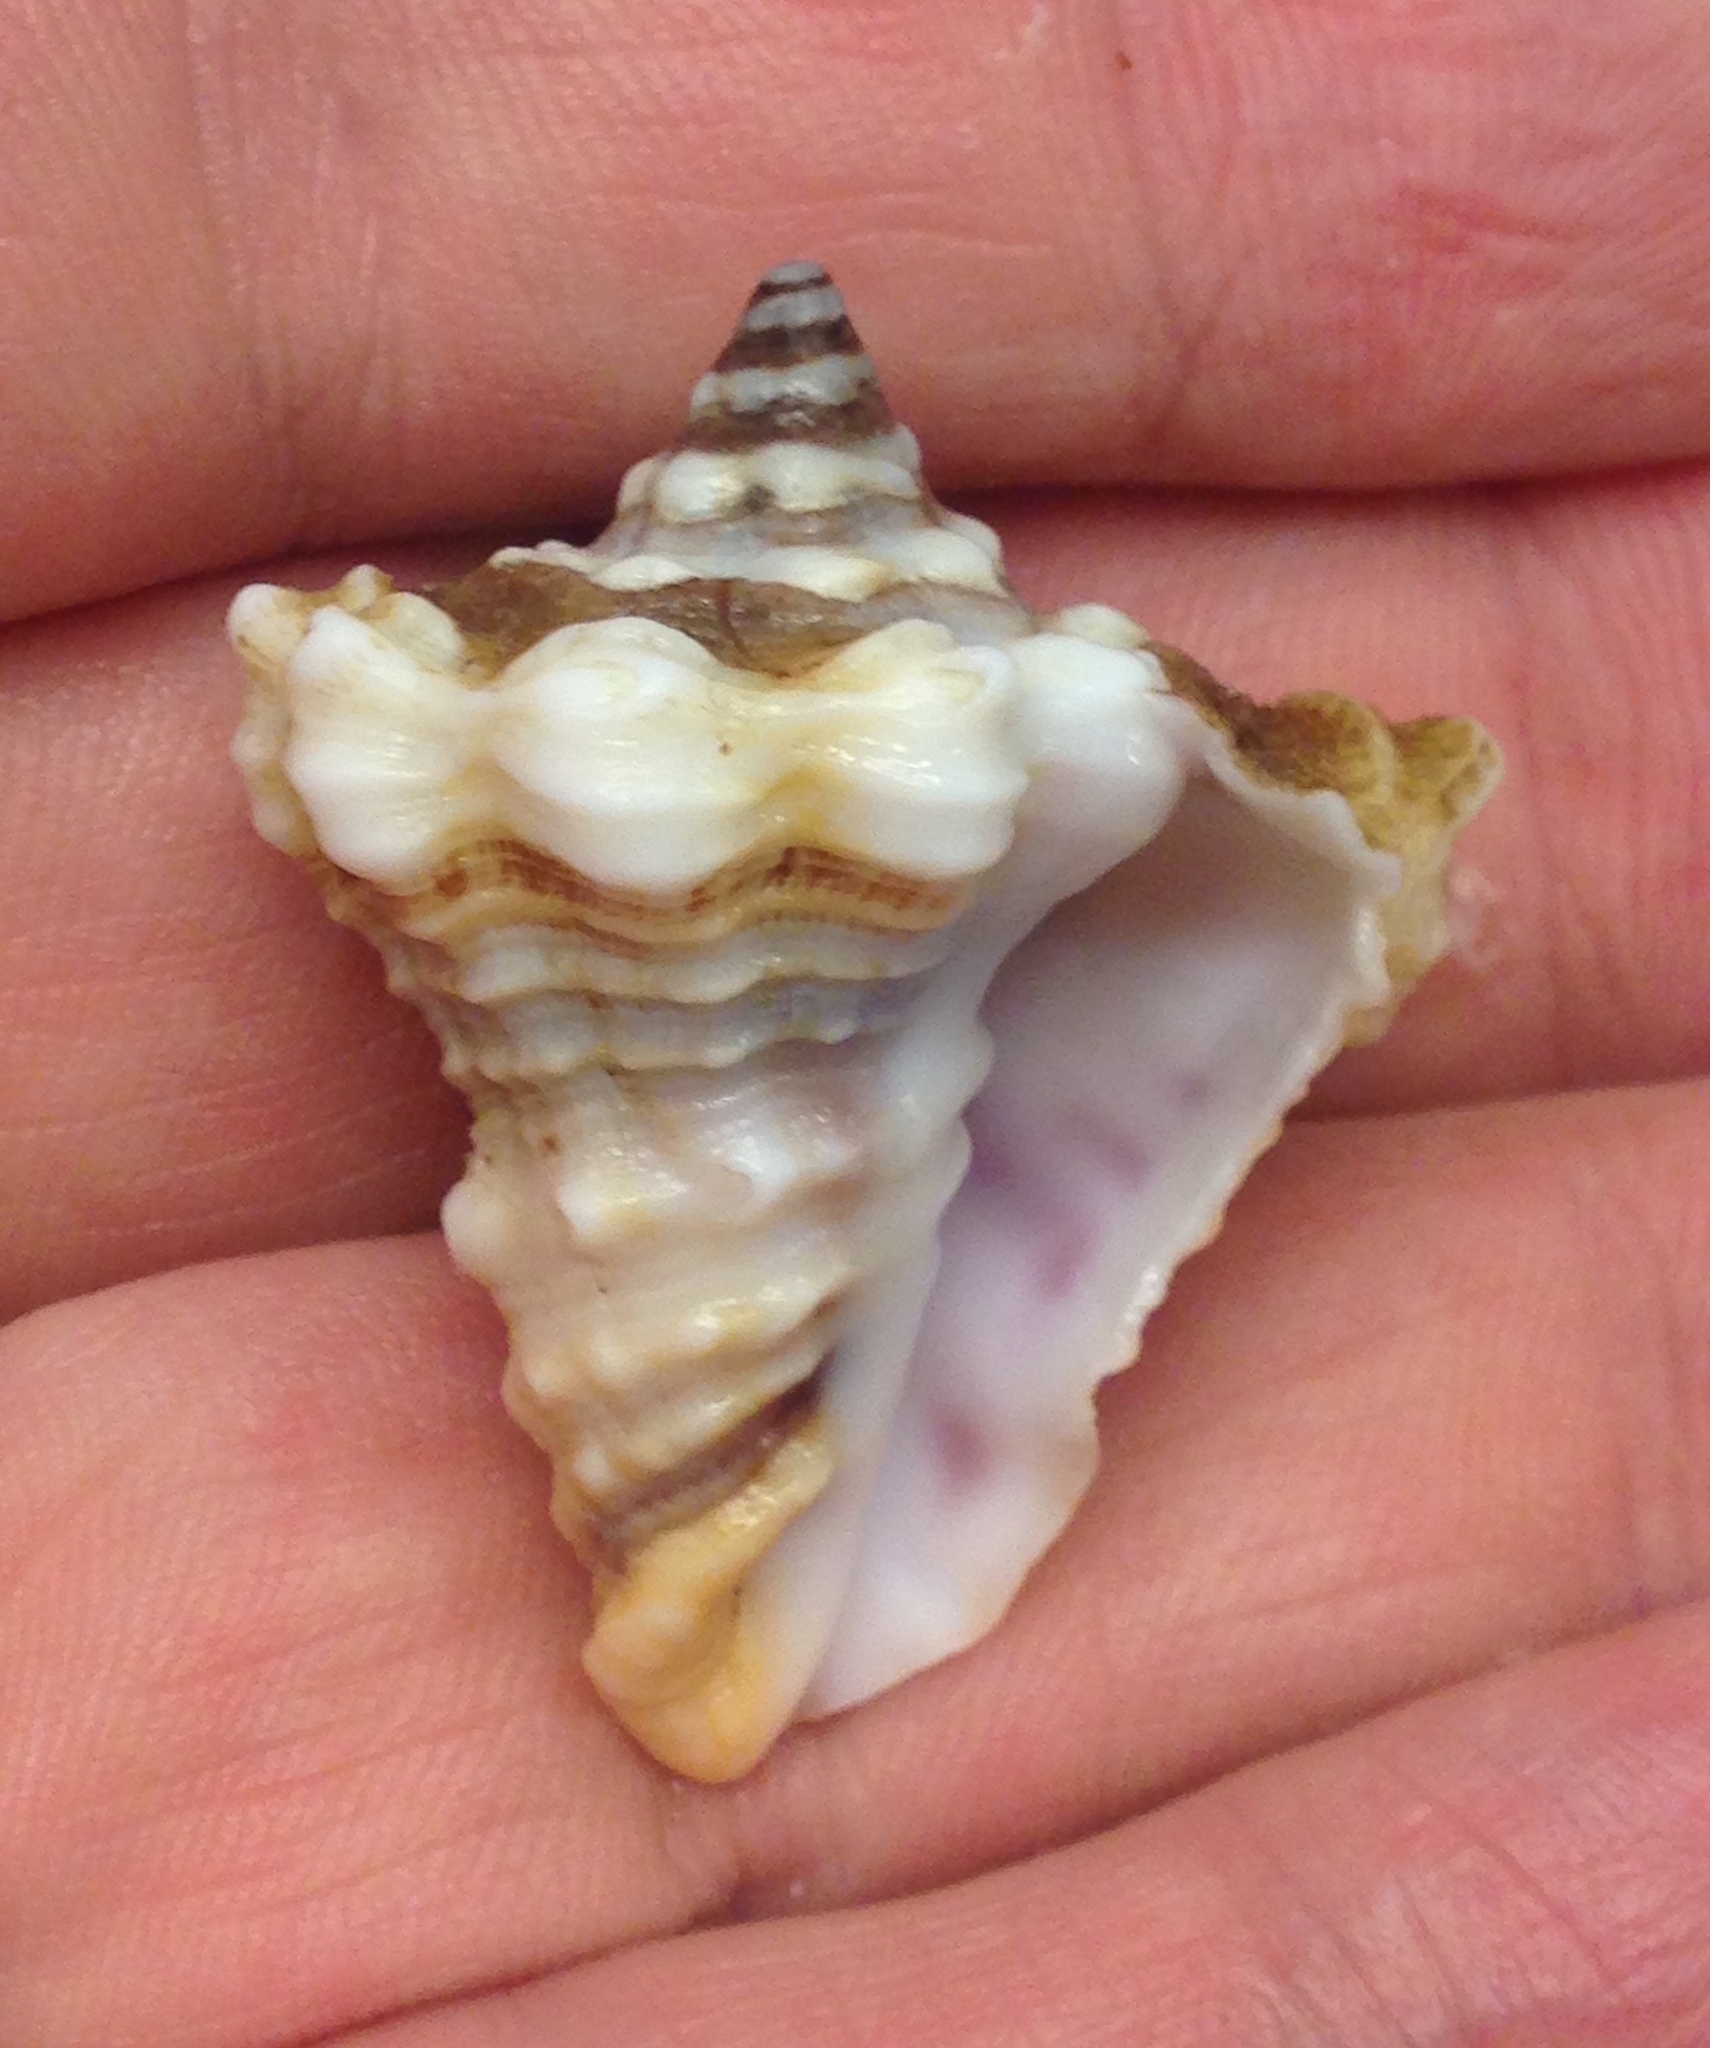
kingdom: Animalia
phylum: Mollusca
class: Gastropoda
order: Neogastropoda
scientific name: Neogastropoda
